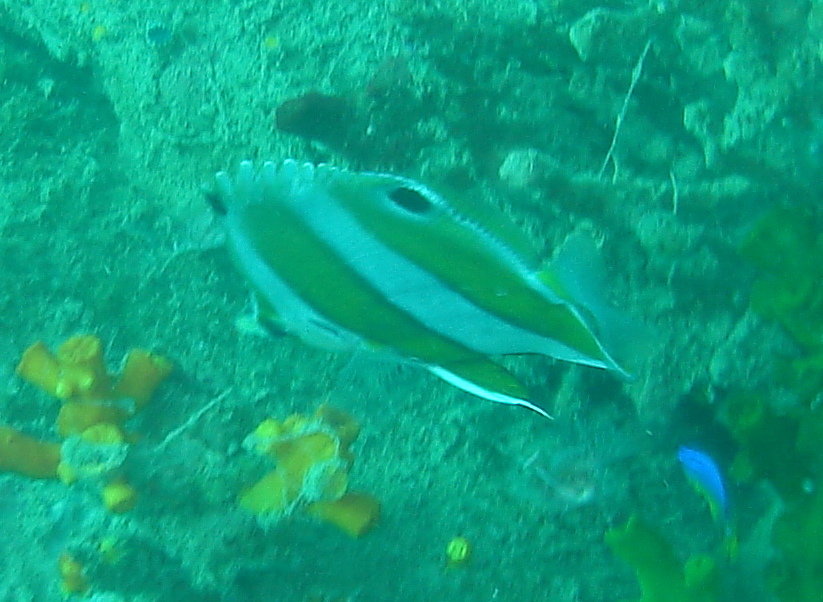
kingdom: Animalia
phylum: Chordata
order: Perciformes
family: Chaetodontidae
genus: Roa
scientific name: Roa modesta
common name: Brown-banded butterflyfish
